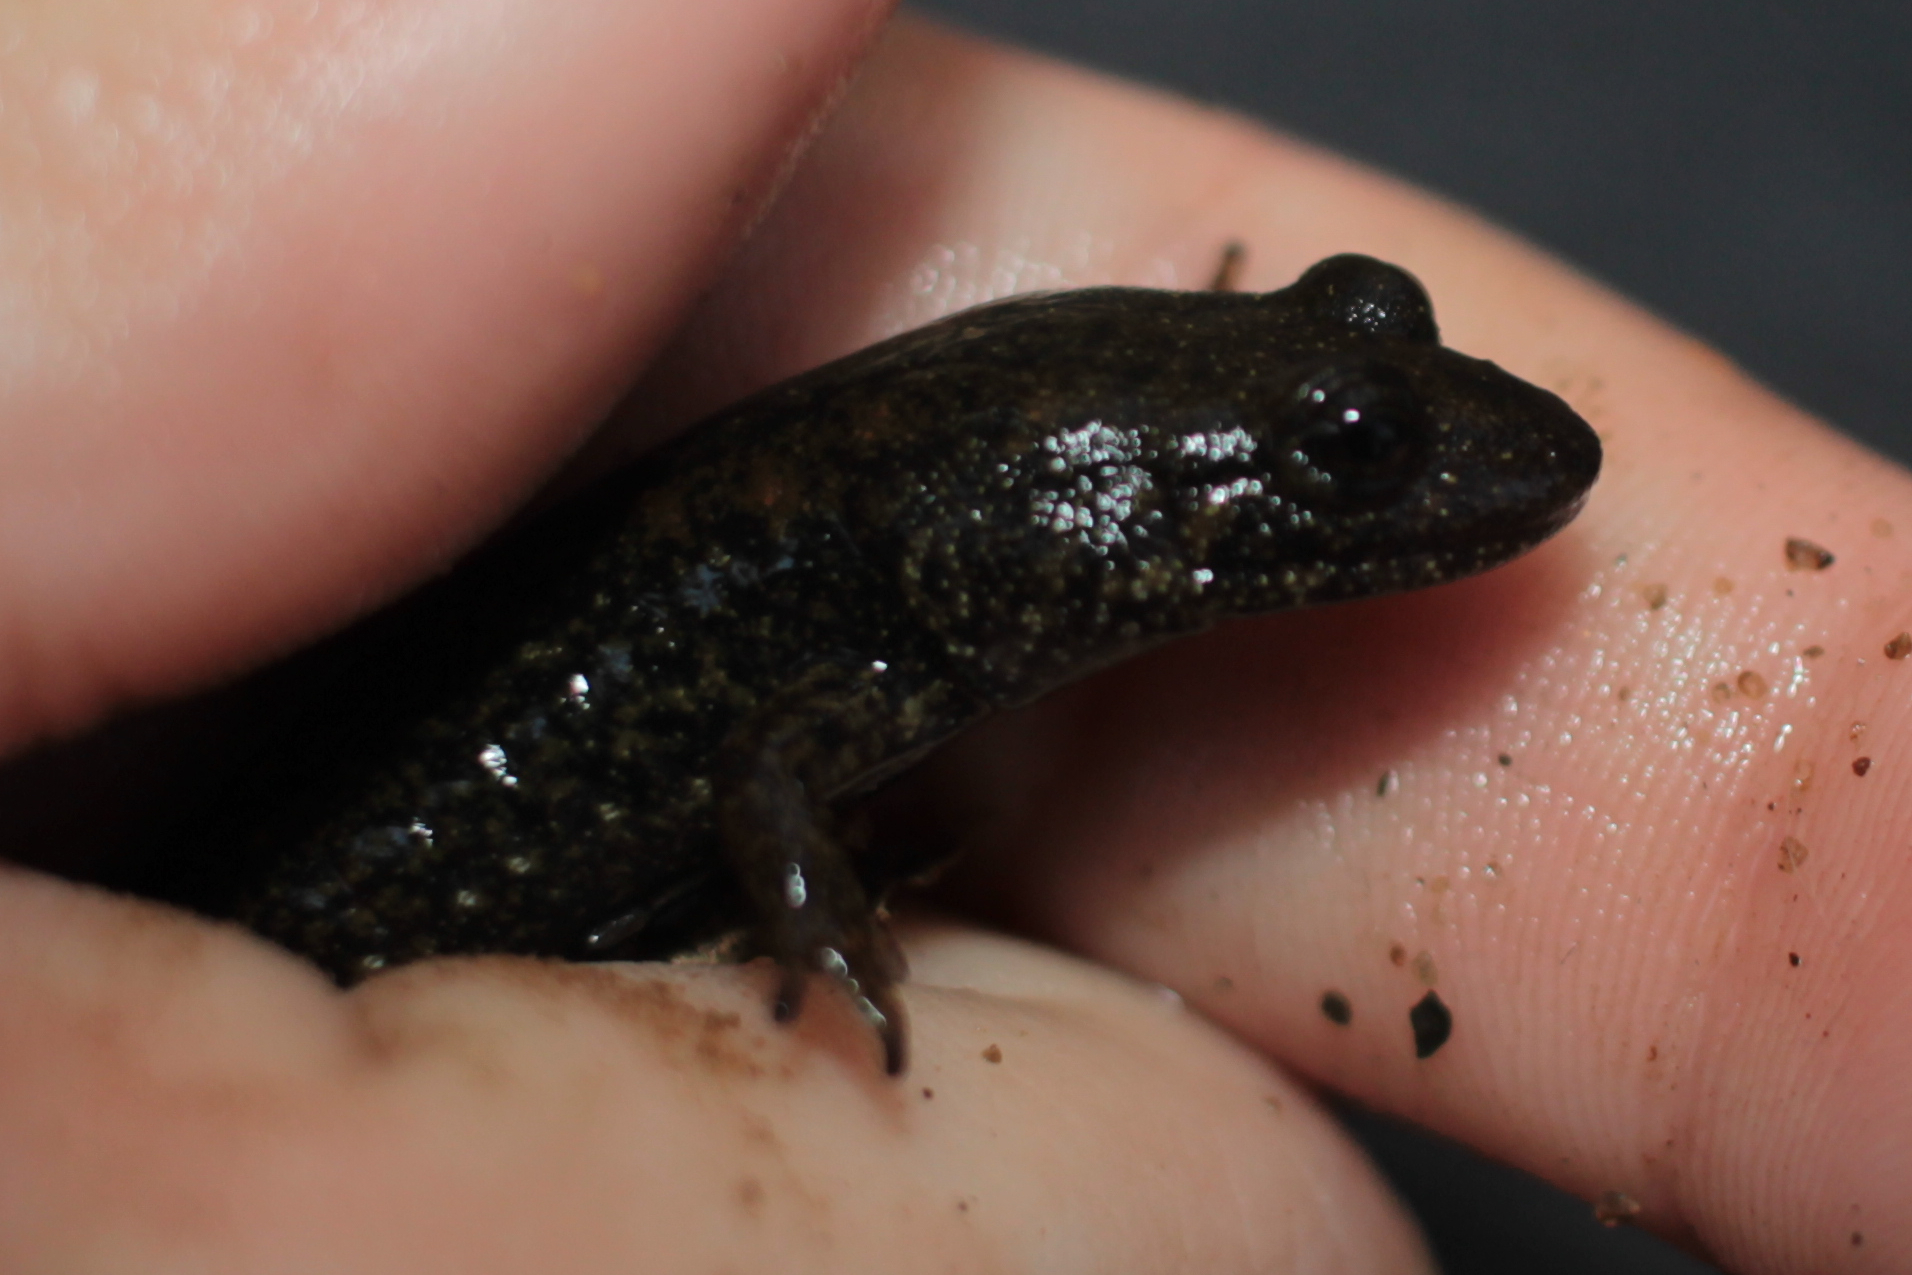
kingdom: Animalia
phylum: Chordata
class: Amphibia
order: Caudata
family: Plethodontidae
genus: Desmognathus
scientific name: Desmognathus
